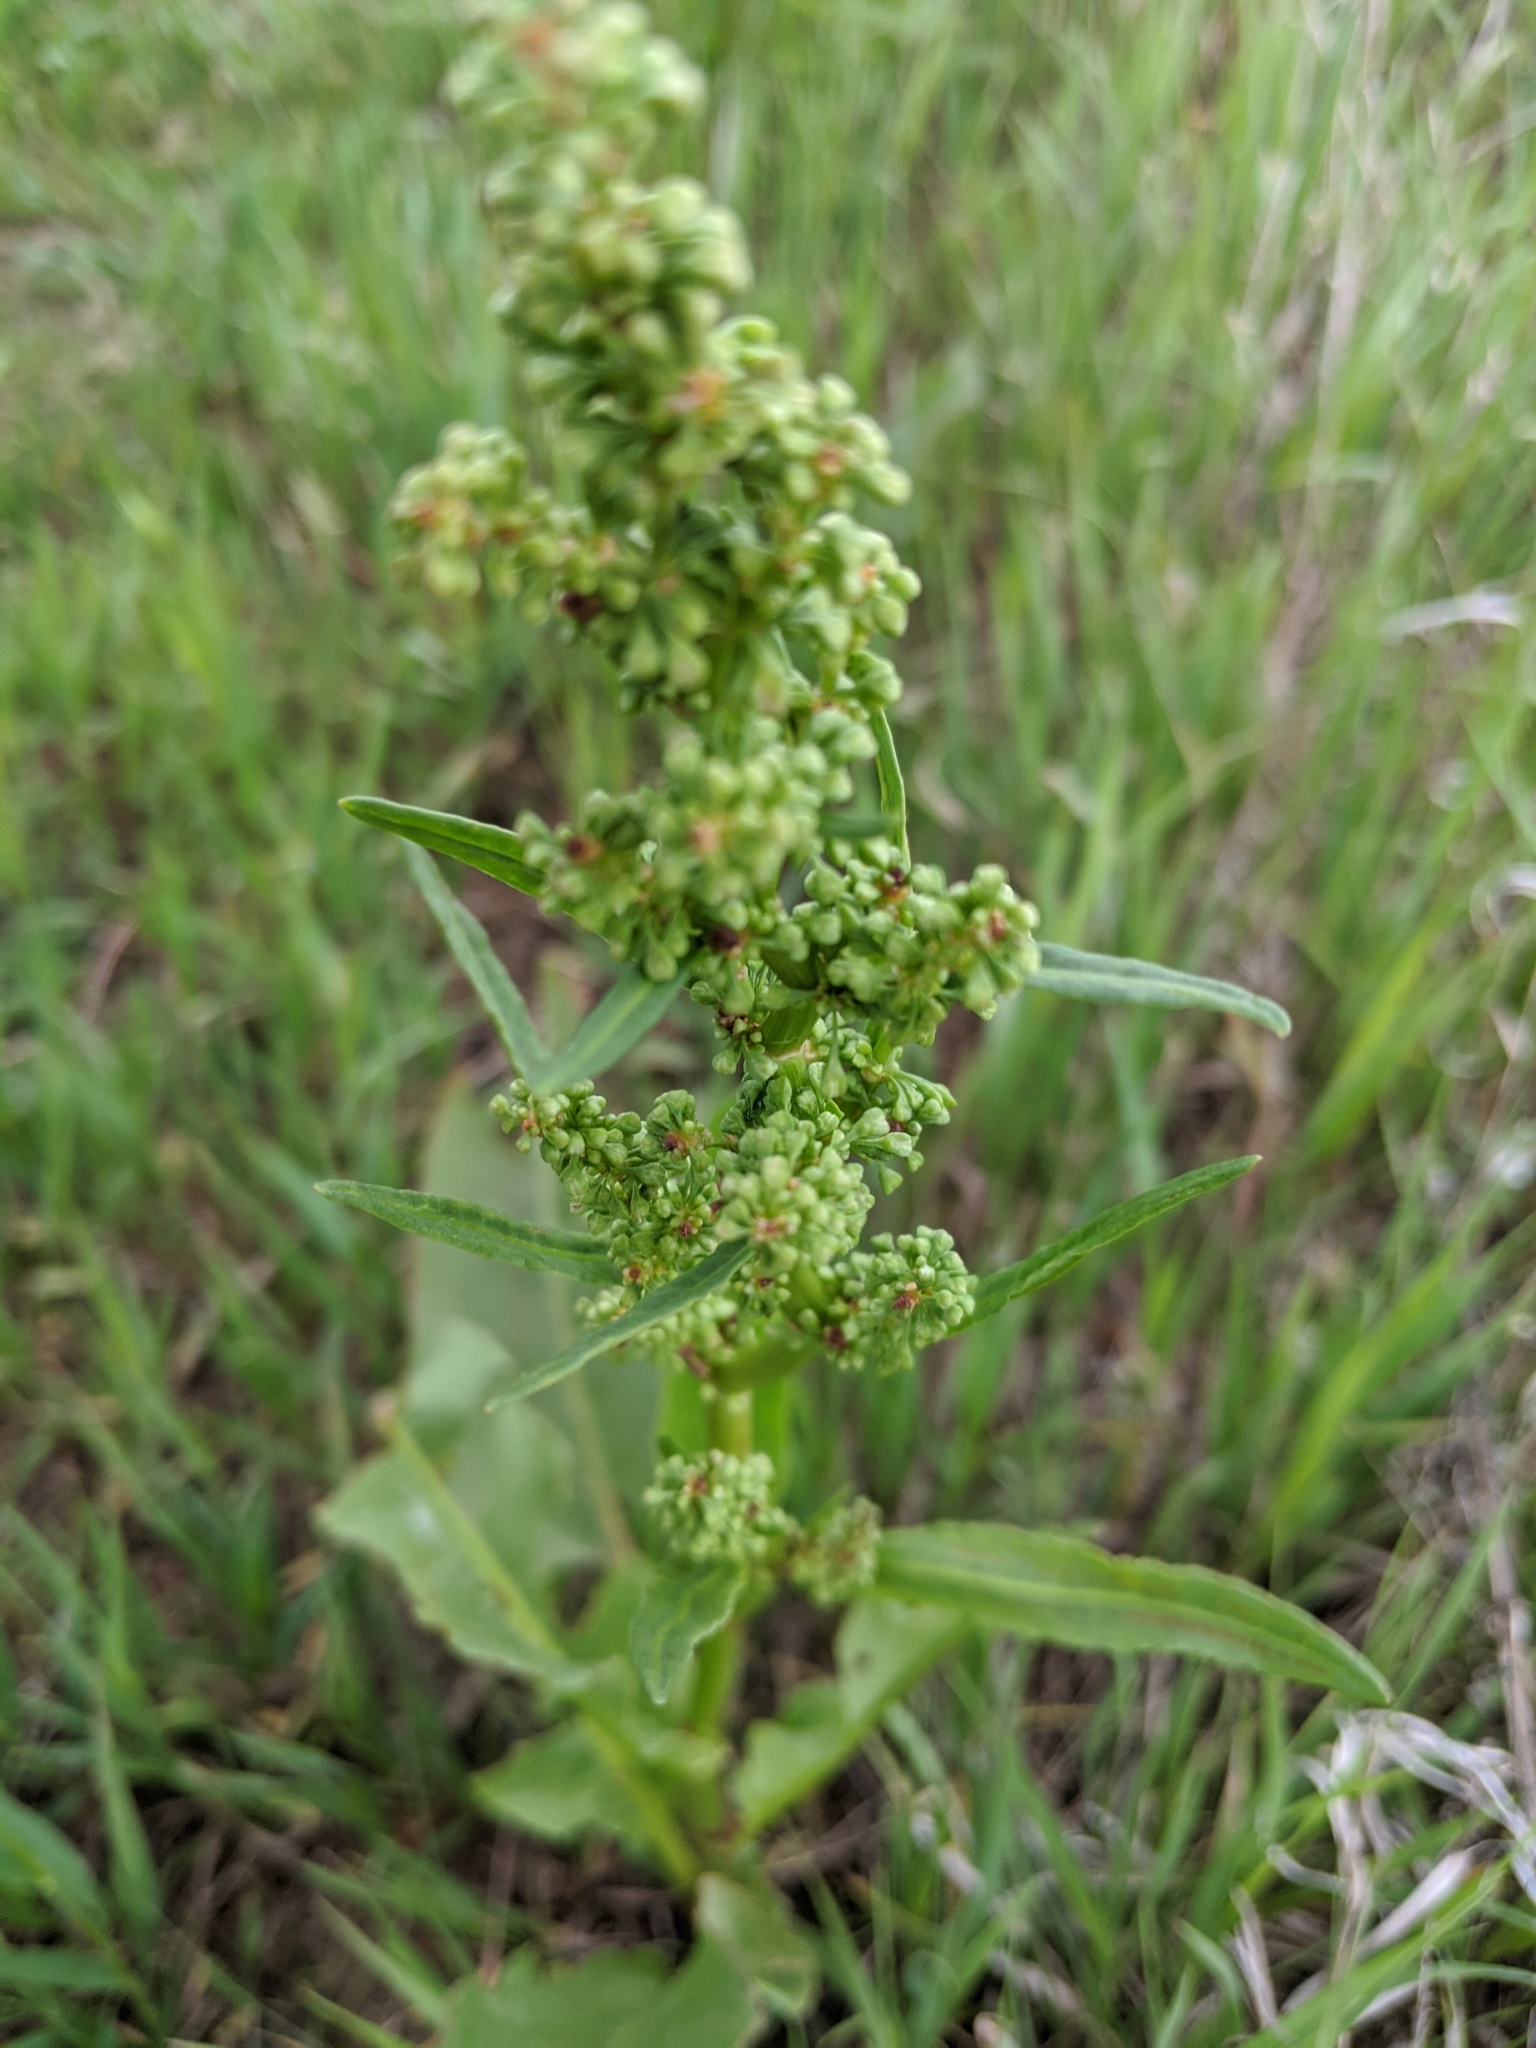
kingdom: Plantae
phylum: Tracheophyta
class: Magnoliopsida
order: Caryophyllales
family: Polygonaceae
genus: Rumex
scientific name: Rumex crispus
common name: Curled dock
